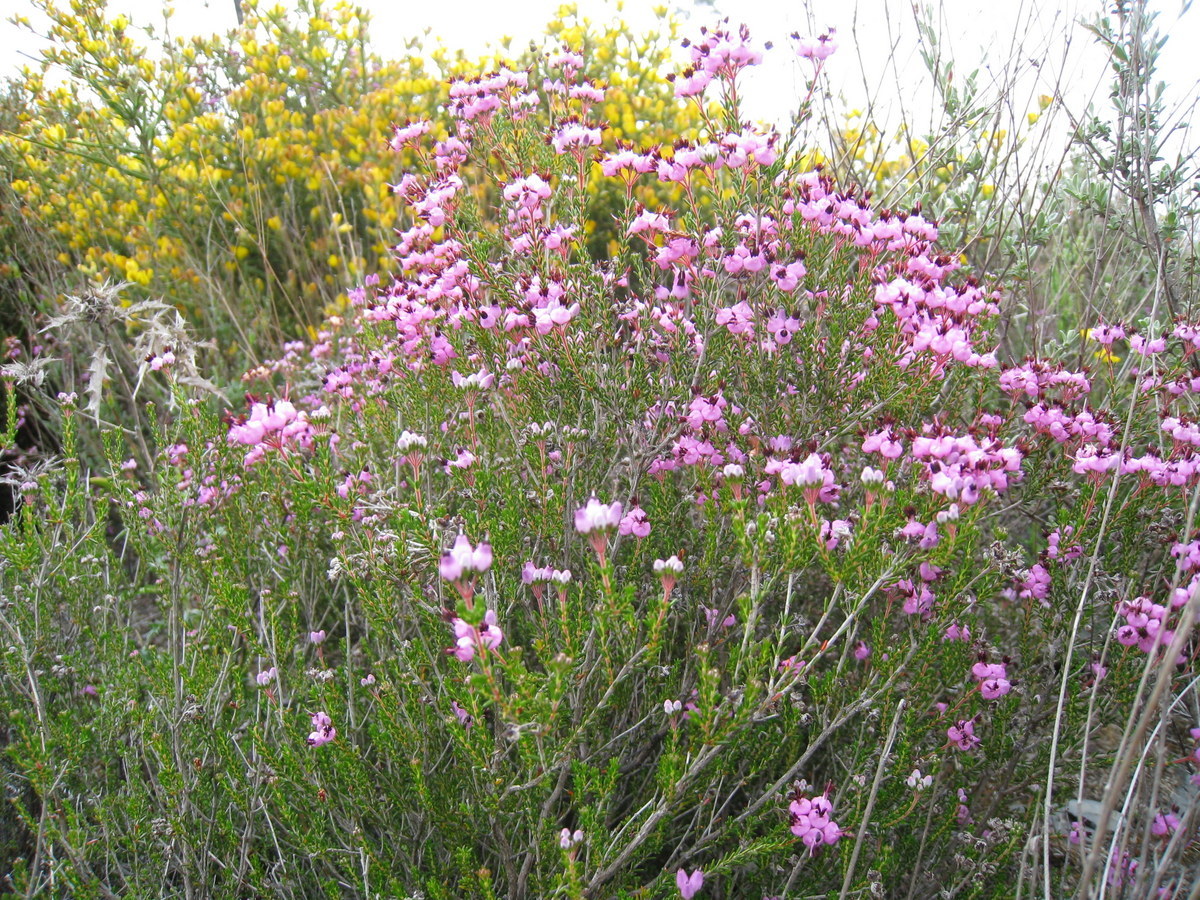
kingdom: Plantae
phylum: Tracheophyta
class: Magnoliopsida
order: Ericales
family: Ericaceae
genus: Erica
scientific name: Erica umbellata
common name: Dwarf spanish heath
